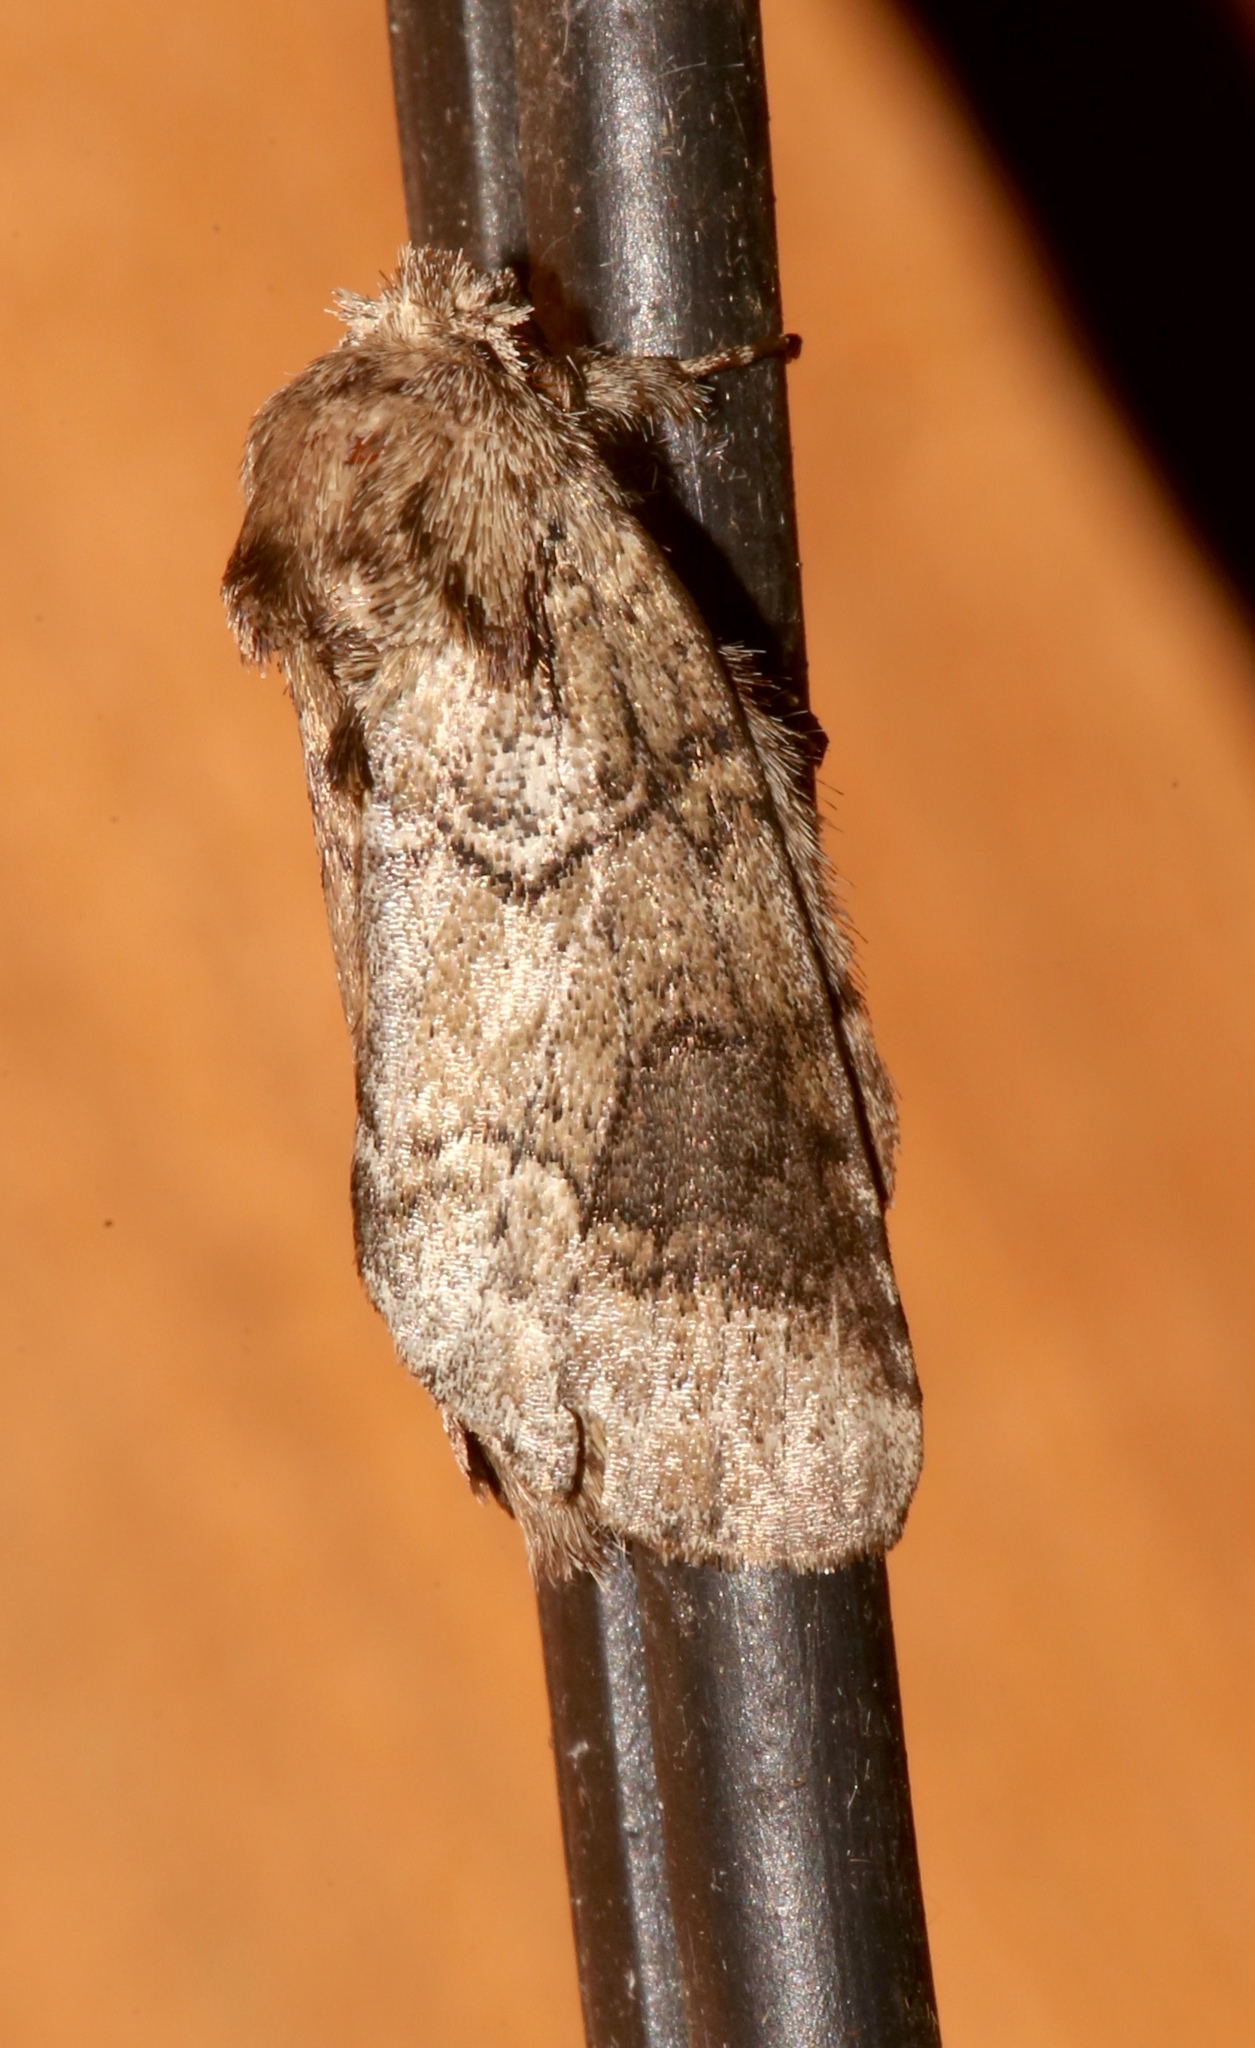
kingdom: Animalia
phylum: Arthropoda
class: Insecta
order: Lepidoptera
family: Notodontidae
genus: Lochmaeus
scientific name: Lochmaeus bilineata
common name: Double-lined prominent
